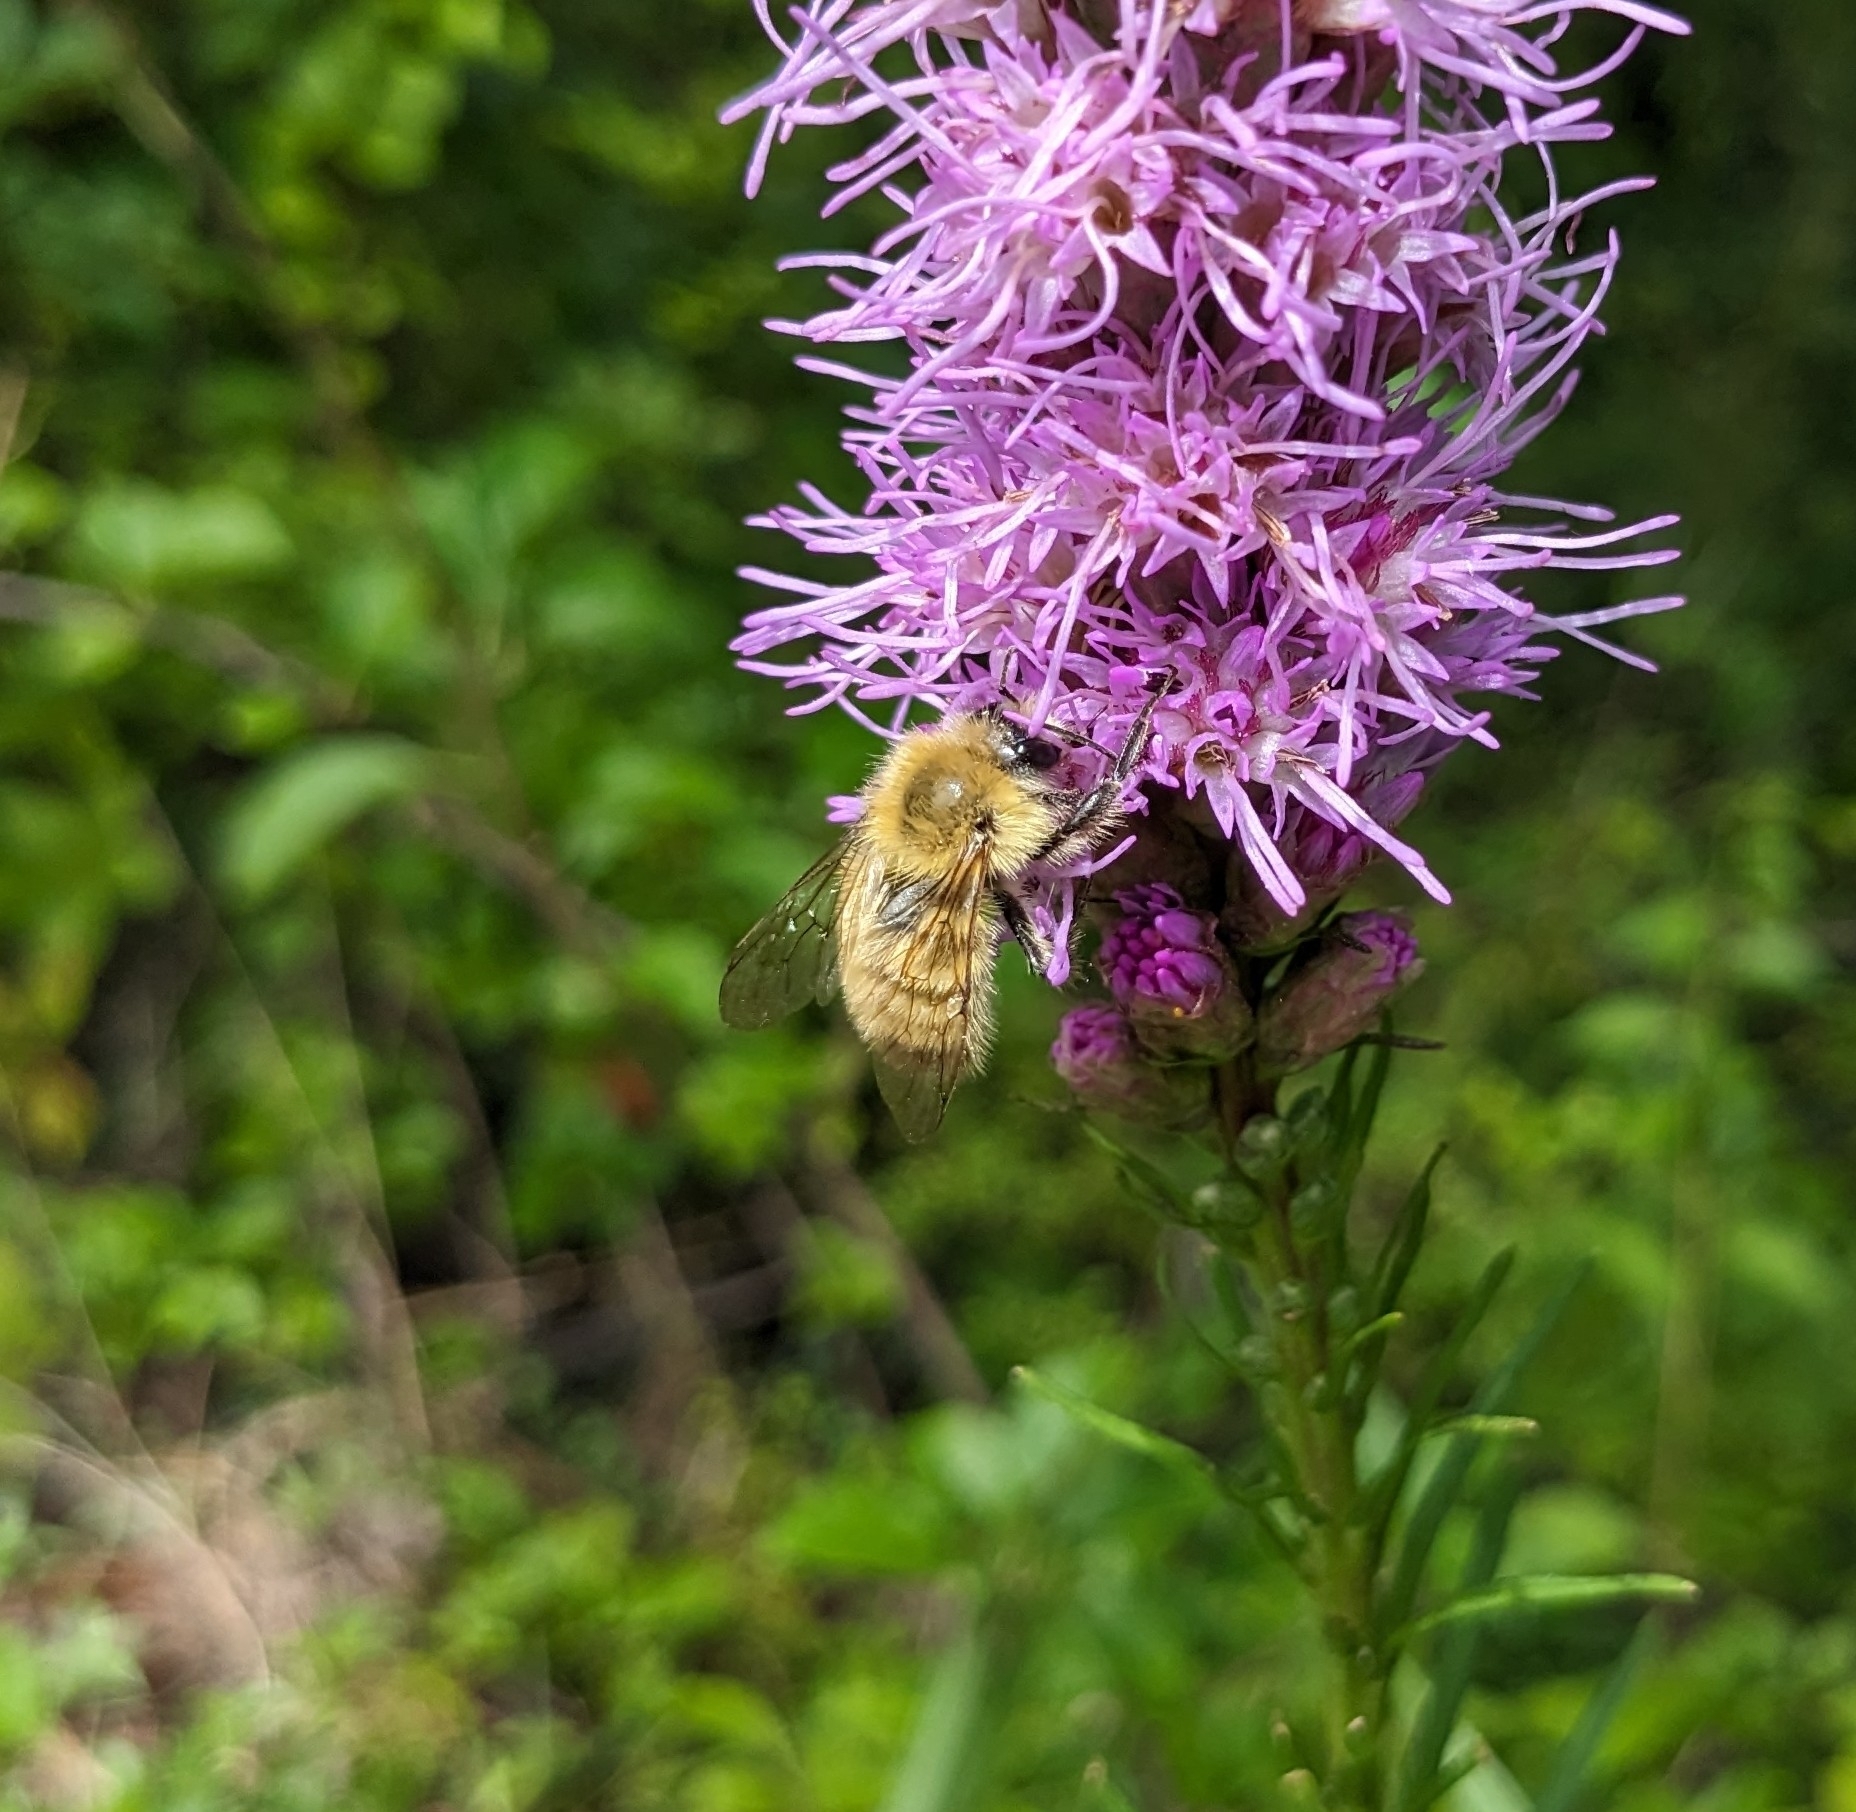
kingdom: Animalia
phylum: Arthropoda
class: Insecta
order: Hymenoptera
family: Apidae
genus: Bombus
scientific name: Bombus perplexus
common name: Confusing bumble bee
